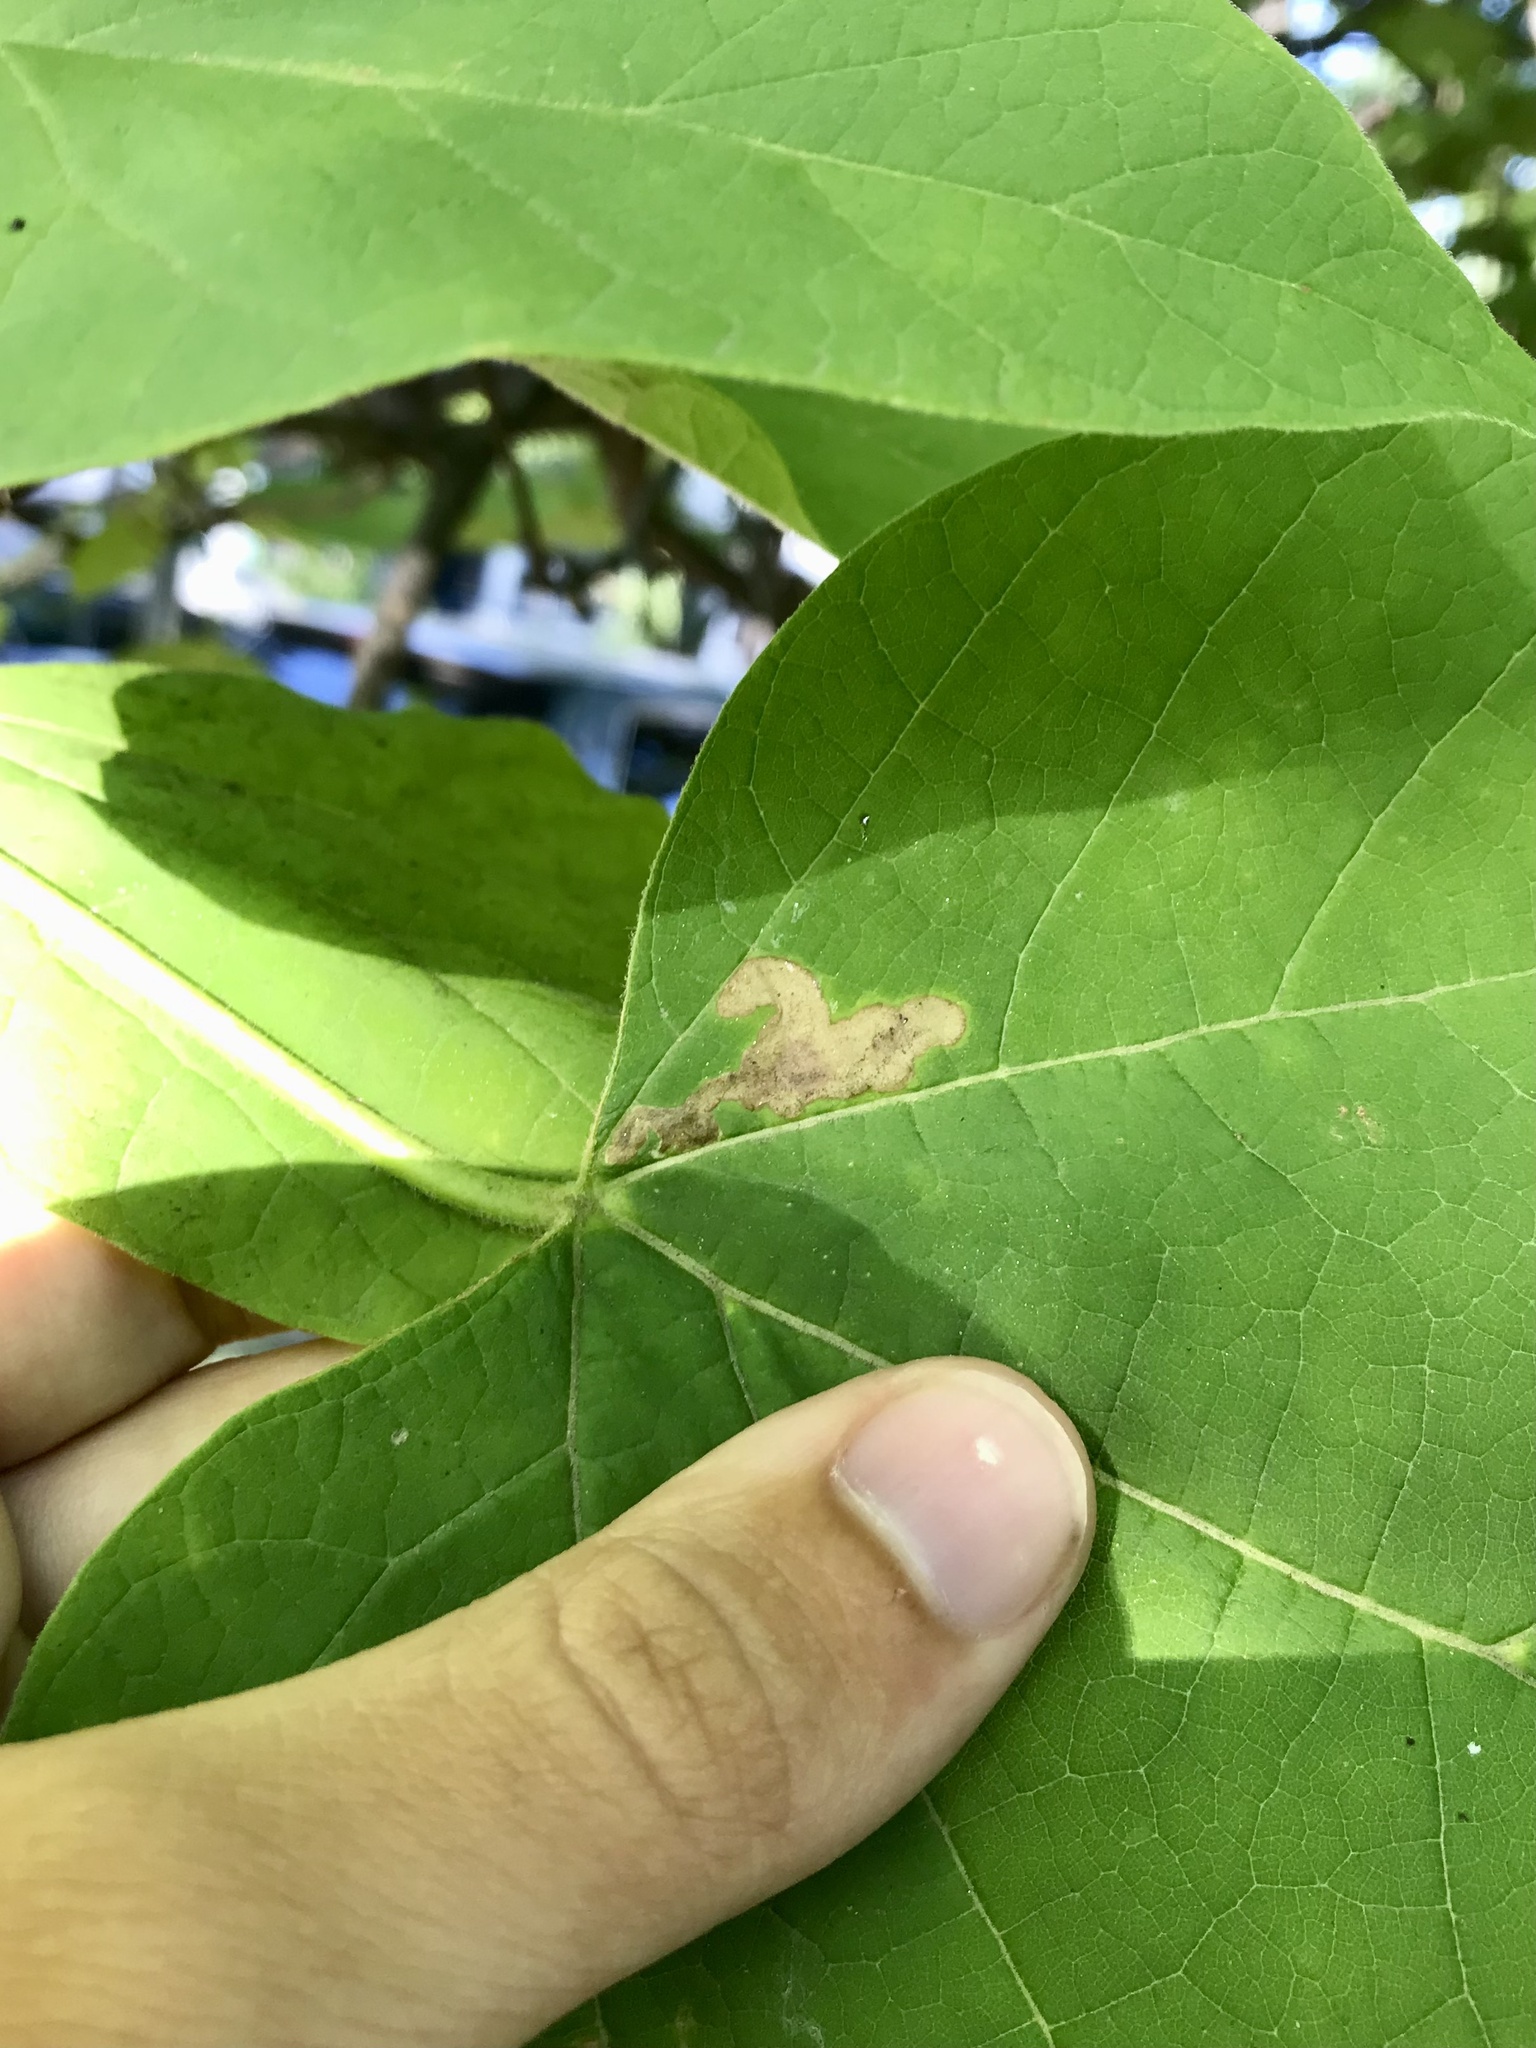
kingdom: Animalia
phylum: Arthropoda
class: Insecta
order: Diptera
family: Agromyzidae
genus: Amauromyza
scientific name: Amauromyza pleuralis
